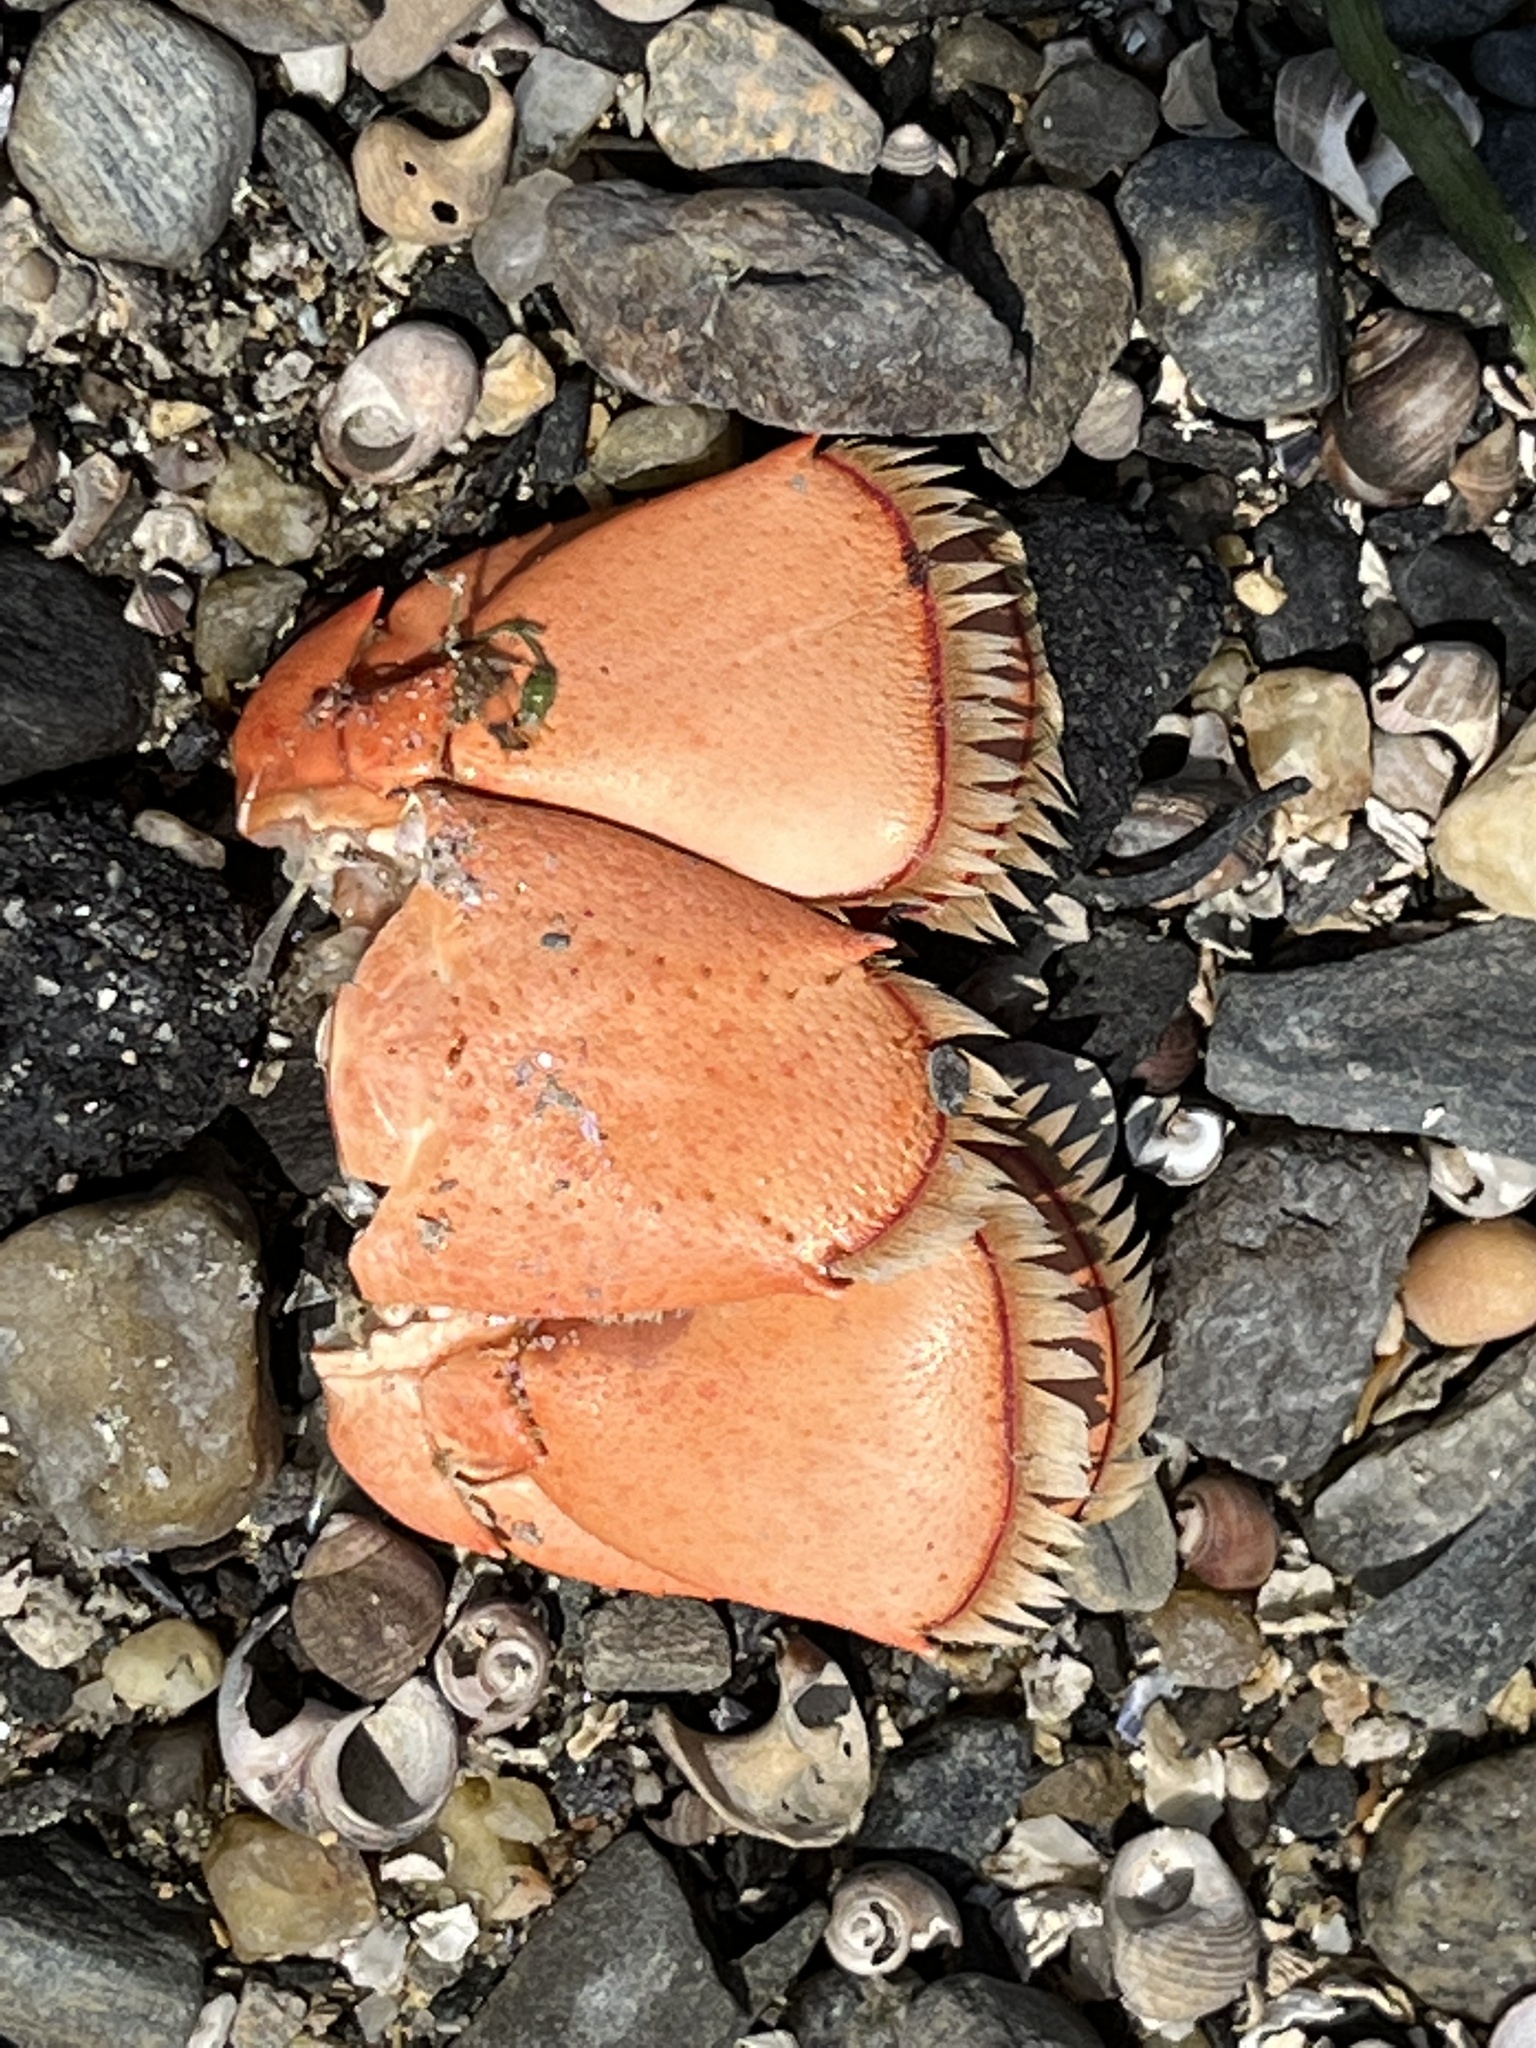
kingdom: Animalia
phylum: Arthropoda
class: Malacostraca
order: Decapoda
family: Nephropidae
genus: Homarus
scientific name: Homarus americanus
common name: American lobster
